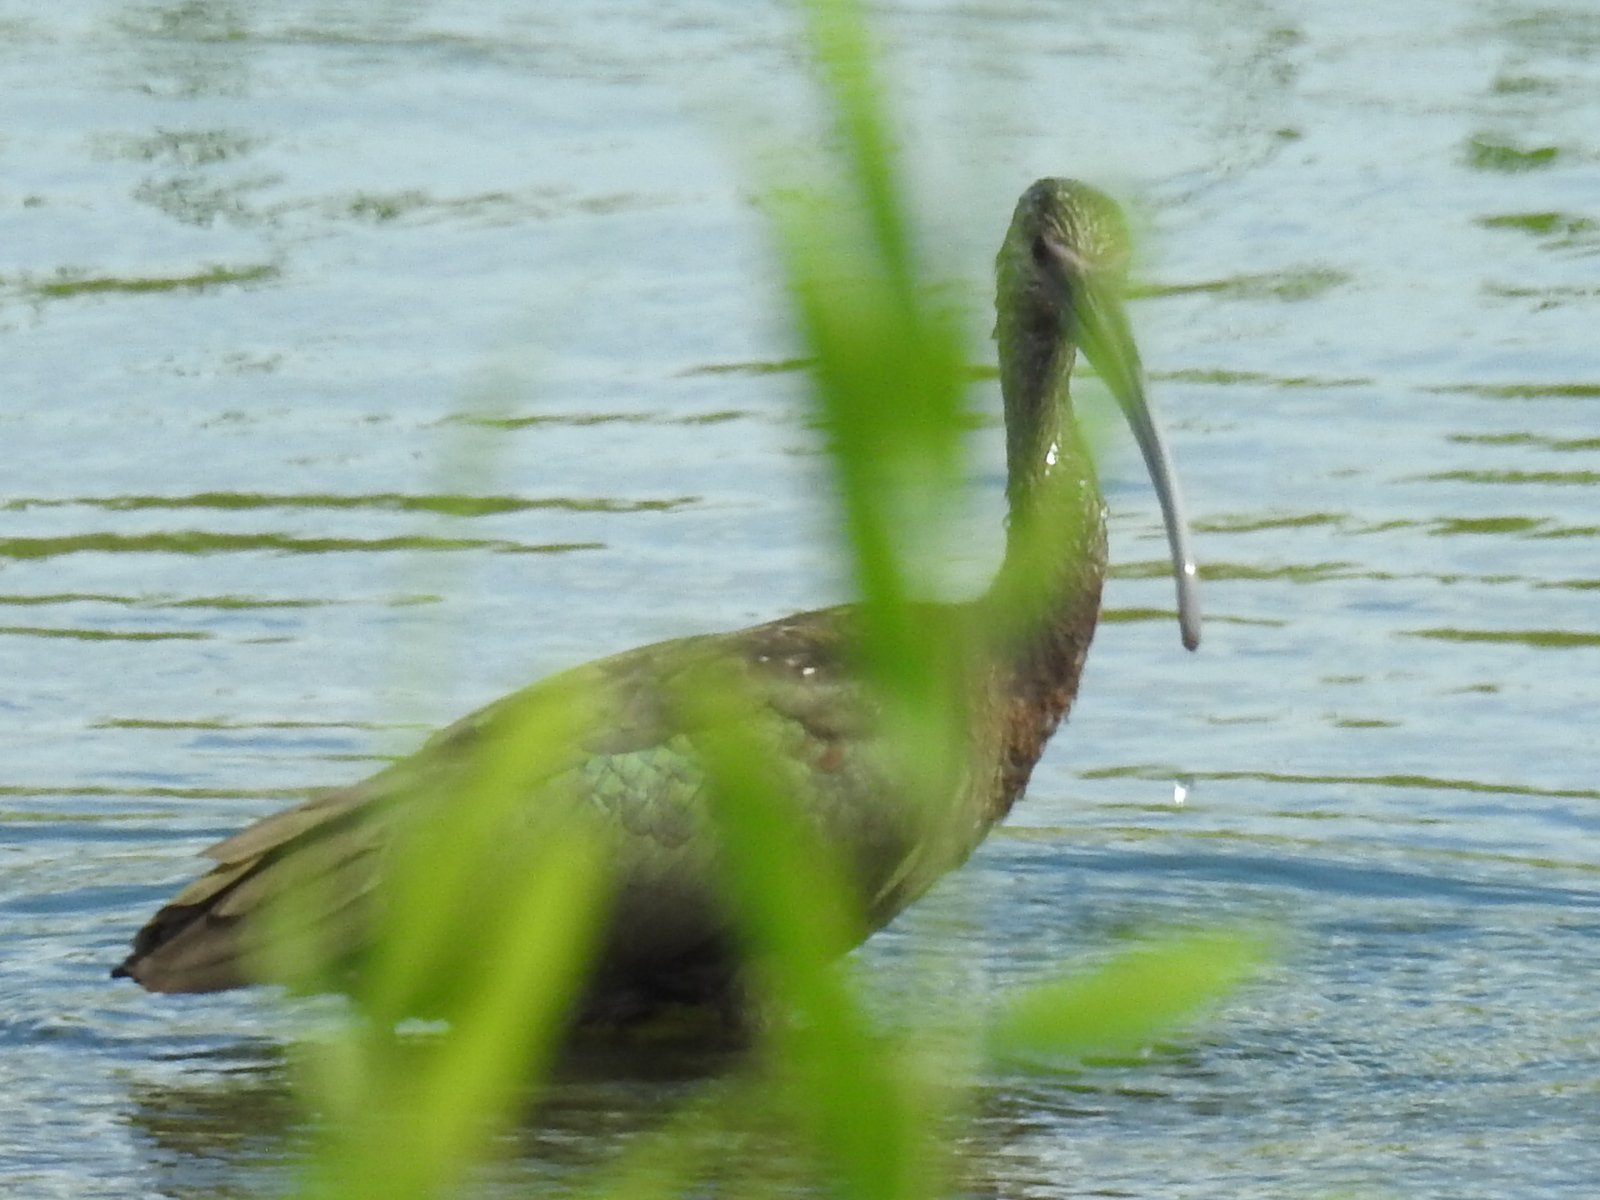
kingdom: Animalia
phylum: Chordata
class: Aves
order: Pelecaniformes
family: Threskiornithidae
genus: Plegadis
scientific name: Plegadis chihi
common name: White-faced ibis
